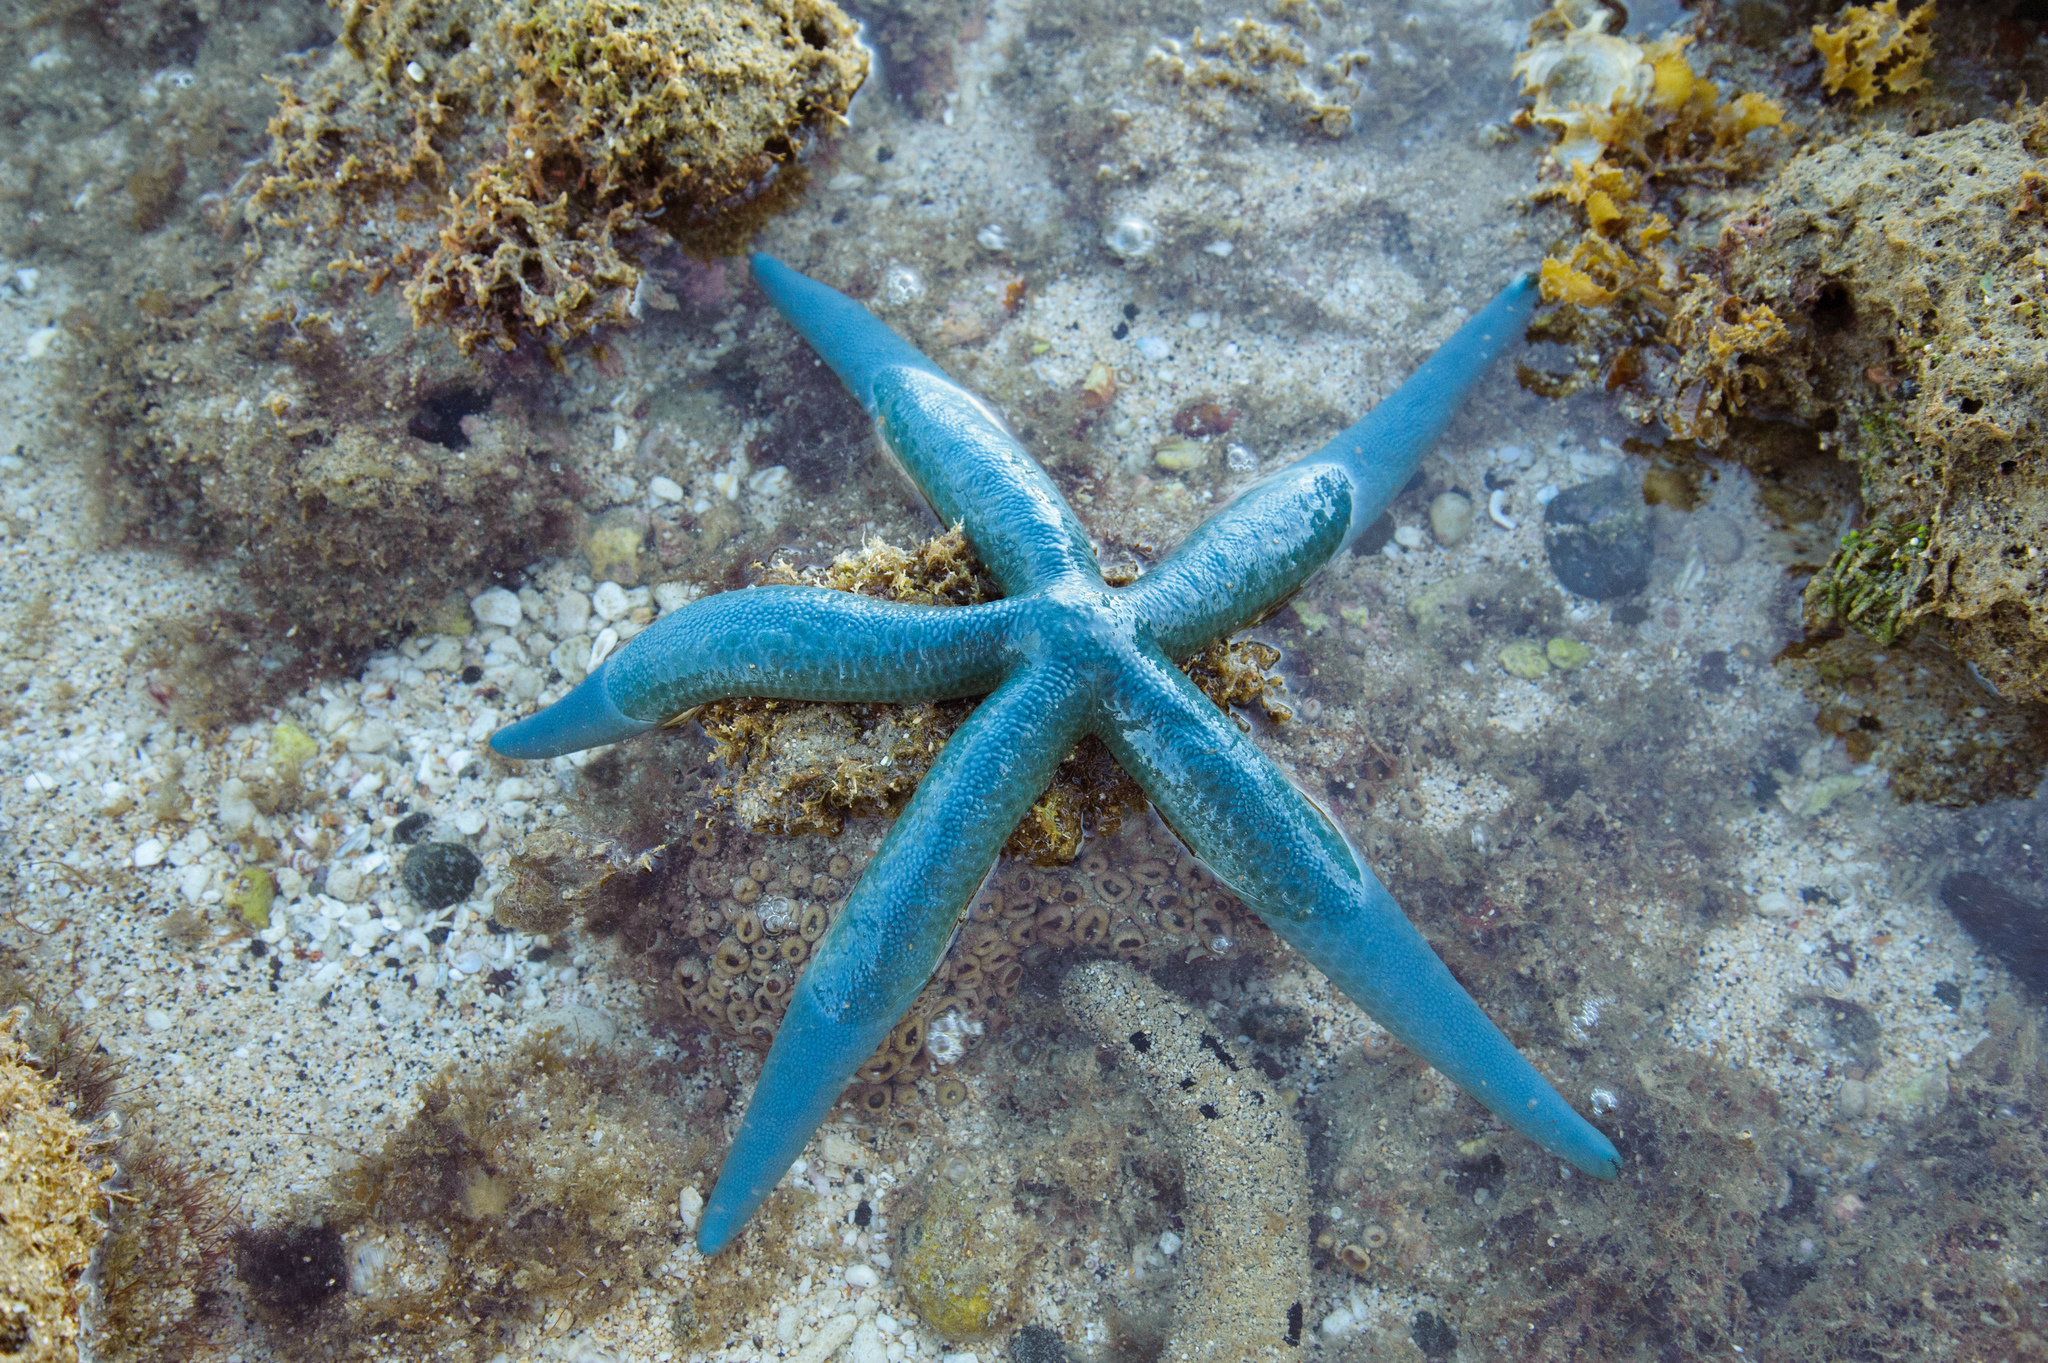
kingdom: Animalia
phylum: Echinodermata
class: Asteroidea
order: Valvatida
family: Ophidiasteridae
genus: Linckia
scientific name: Linckia laevigata
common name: Azure sea star
